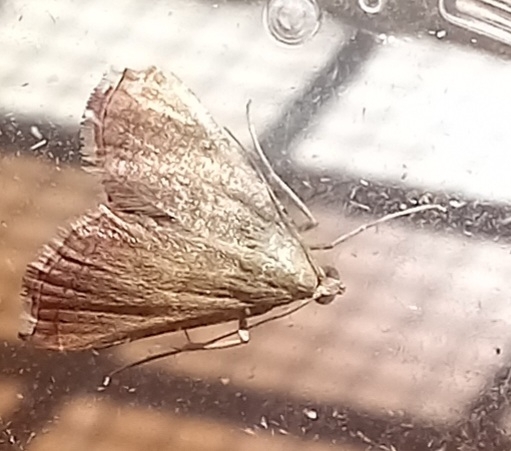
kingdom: Animalia
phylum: Arthropoda
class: Insecta
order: Lepidoptera
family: Pyralidae
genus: Endotricha
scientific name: Endotricha flammealis
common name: Rosy tabby
